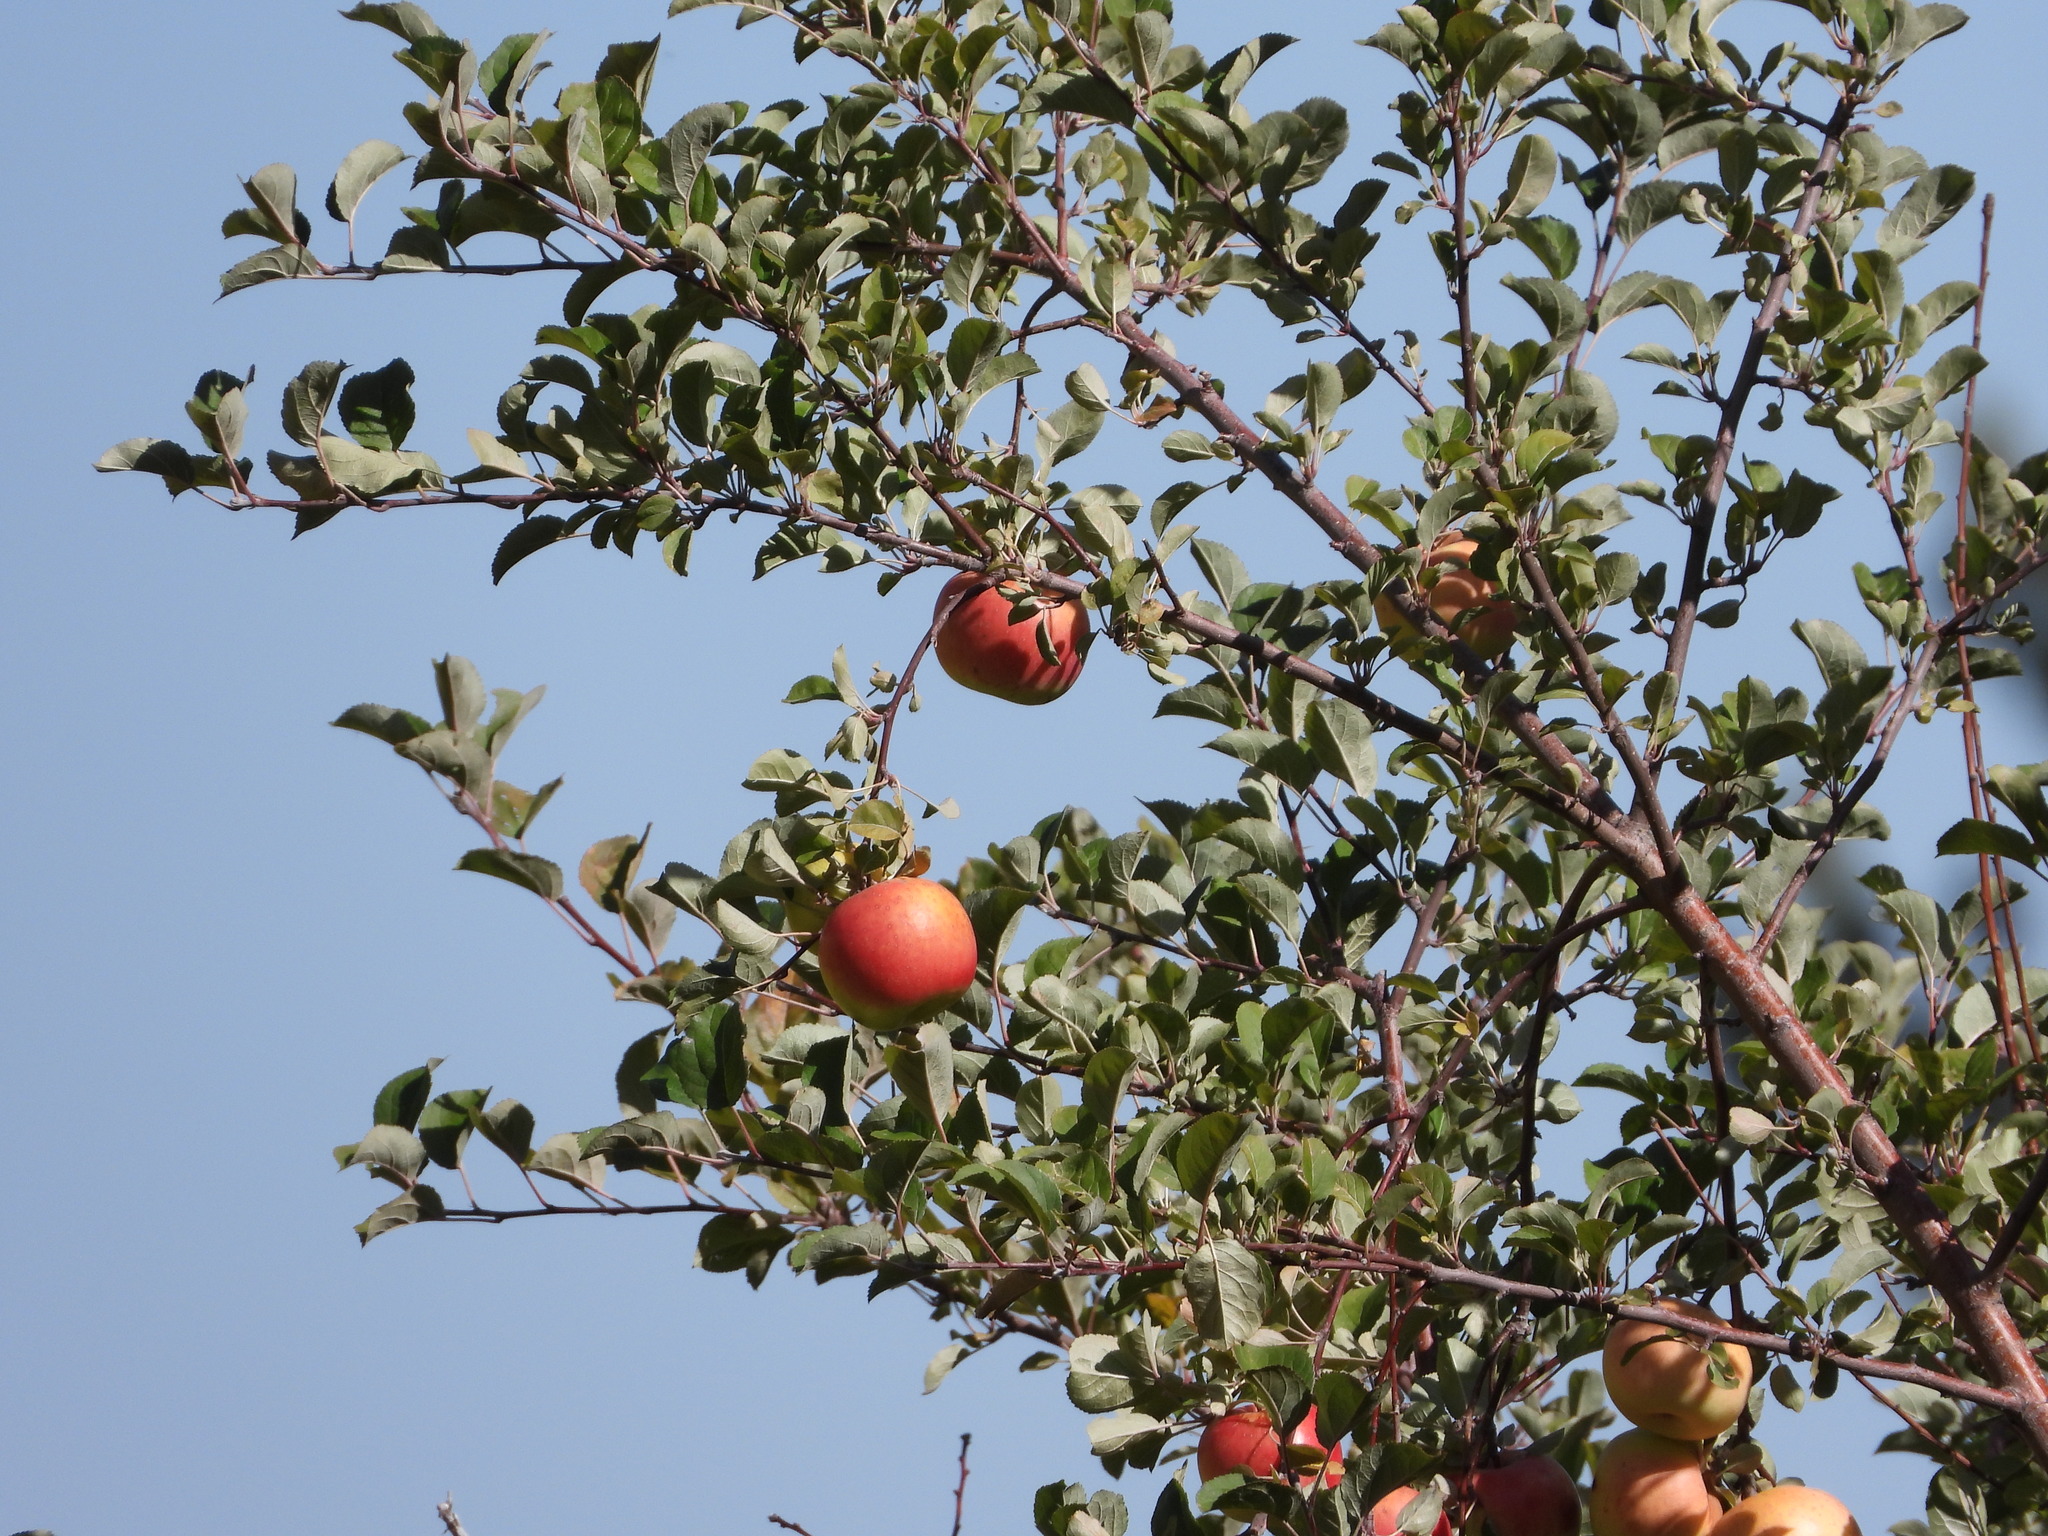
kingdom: Plantae
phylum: Tracheophyta
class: Magnoliopsida
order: Rosales
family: Rosaceae
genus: Malus
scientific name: Malus domestica
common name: Apple
